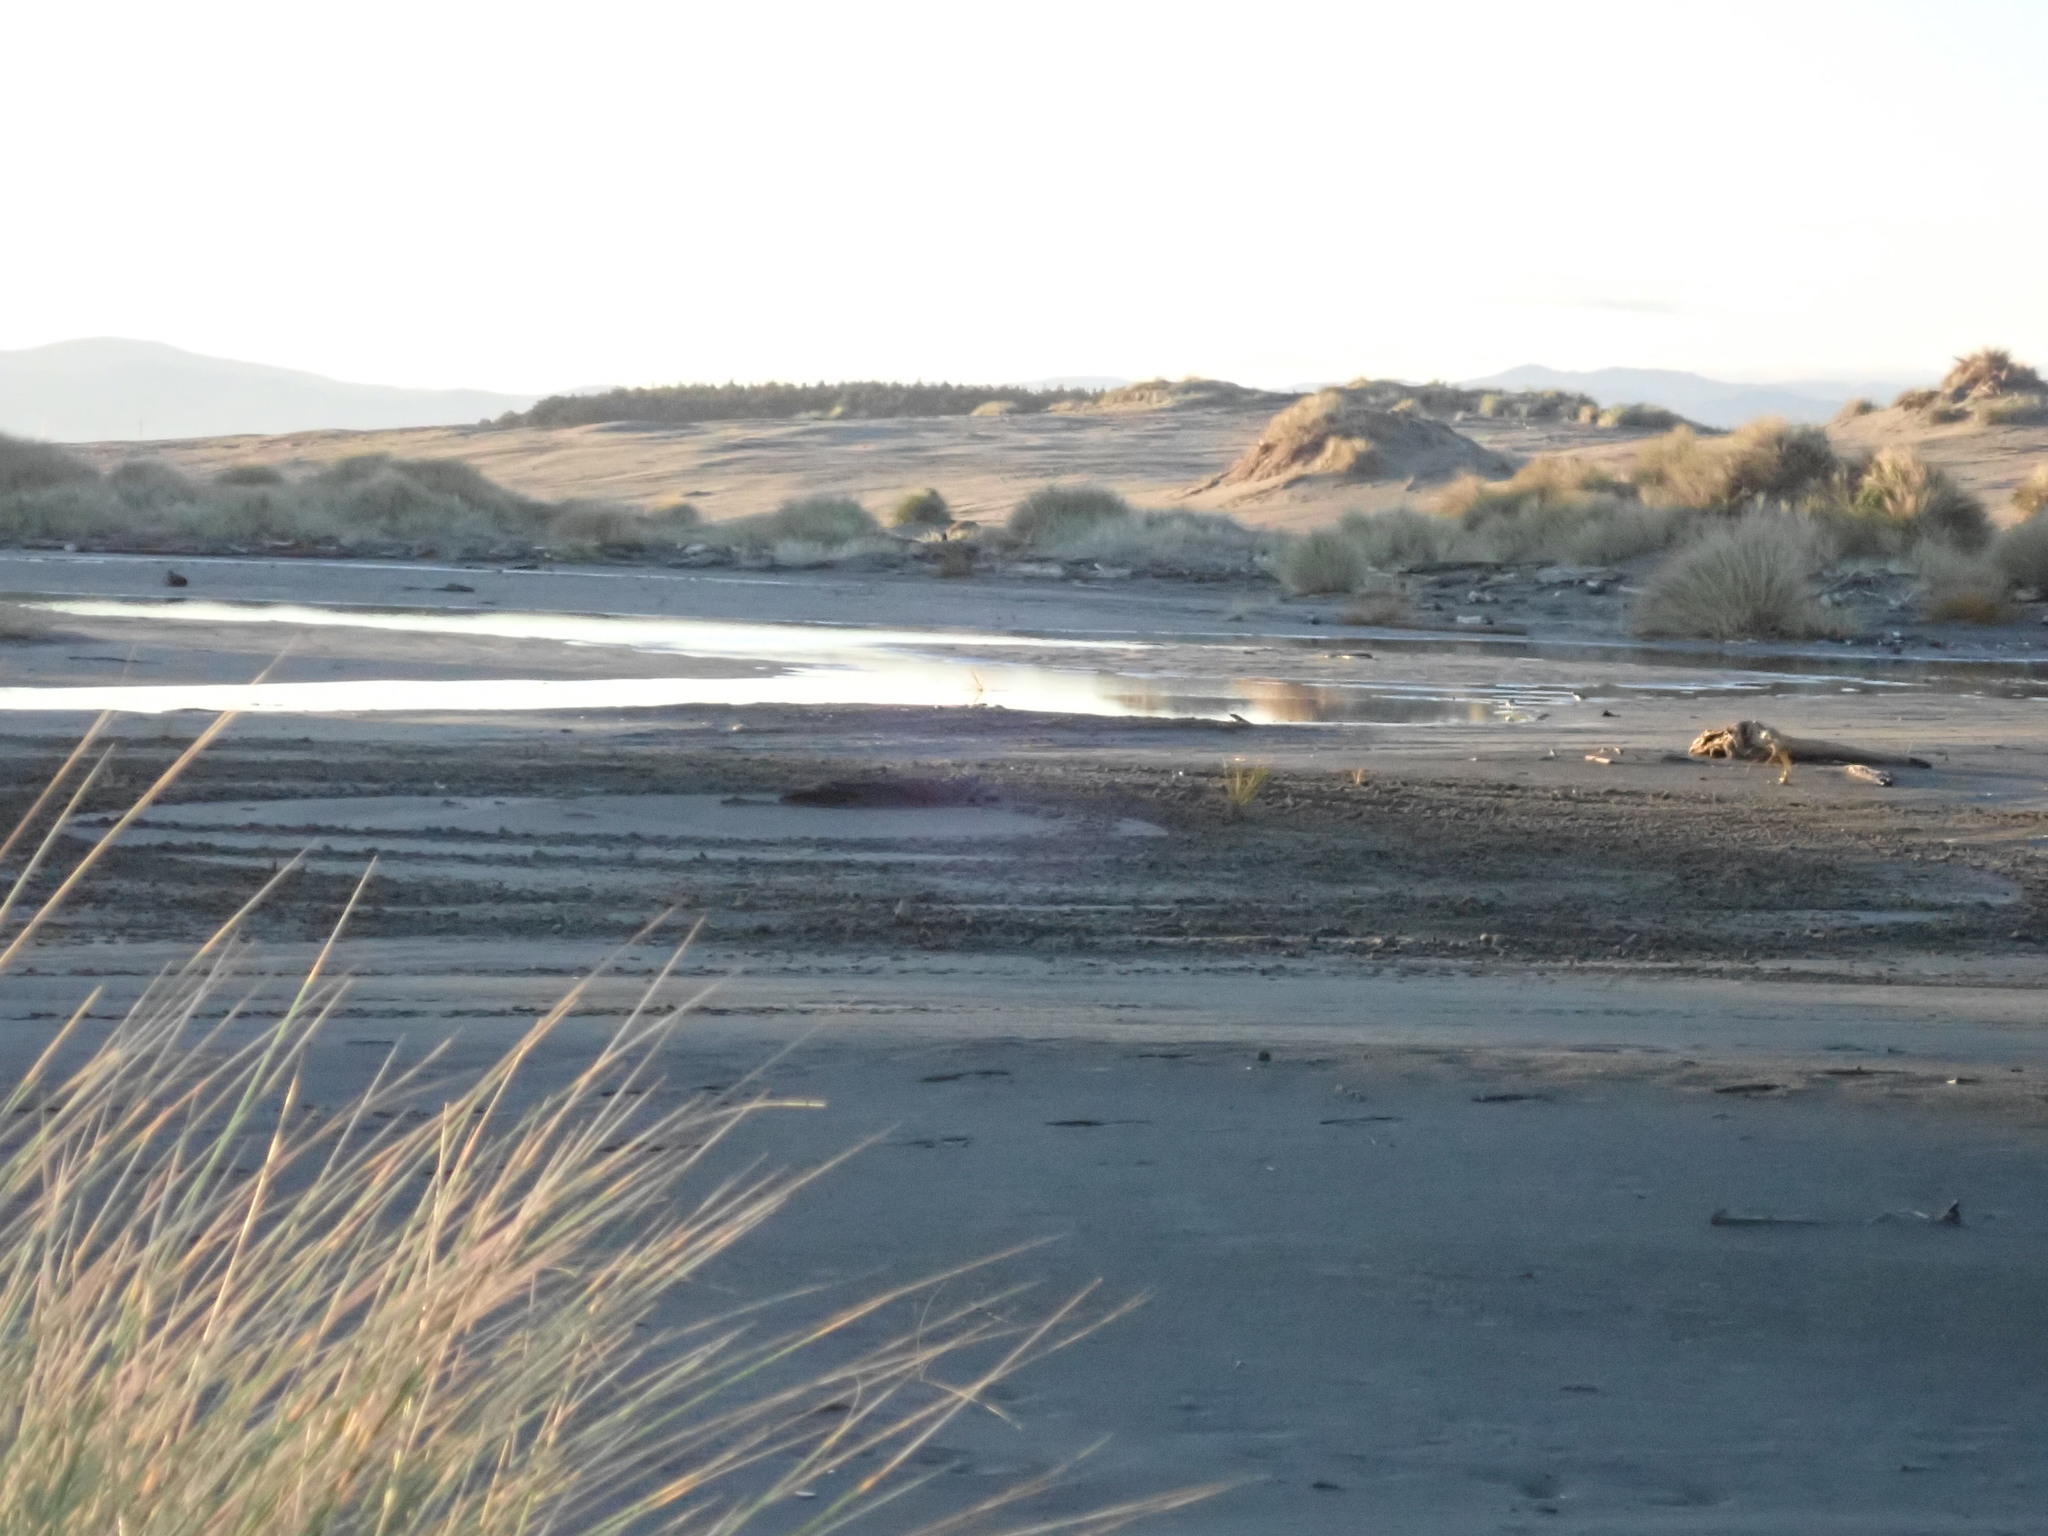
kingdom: Animalia
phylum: Chordata
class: Aves
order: Charadriiformes
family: Charadriidae
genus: Anarhynchus
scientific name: Anarhynchus
